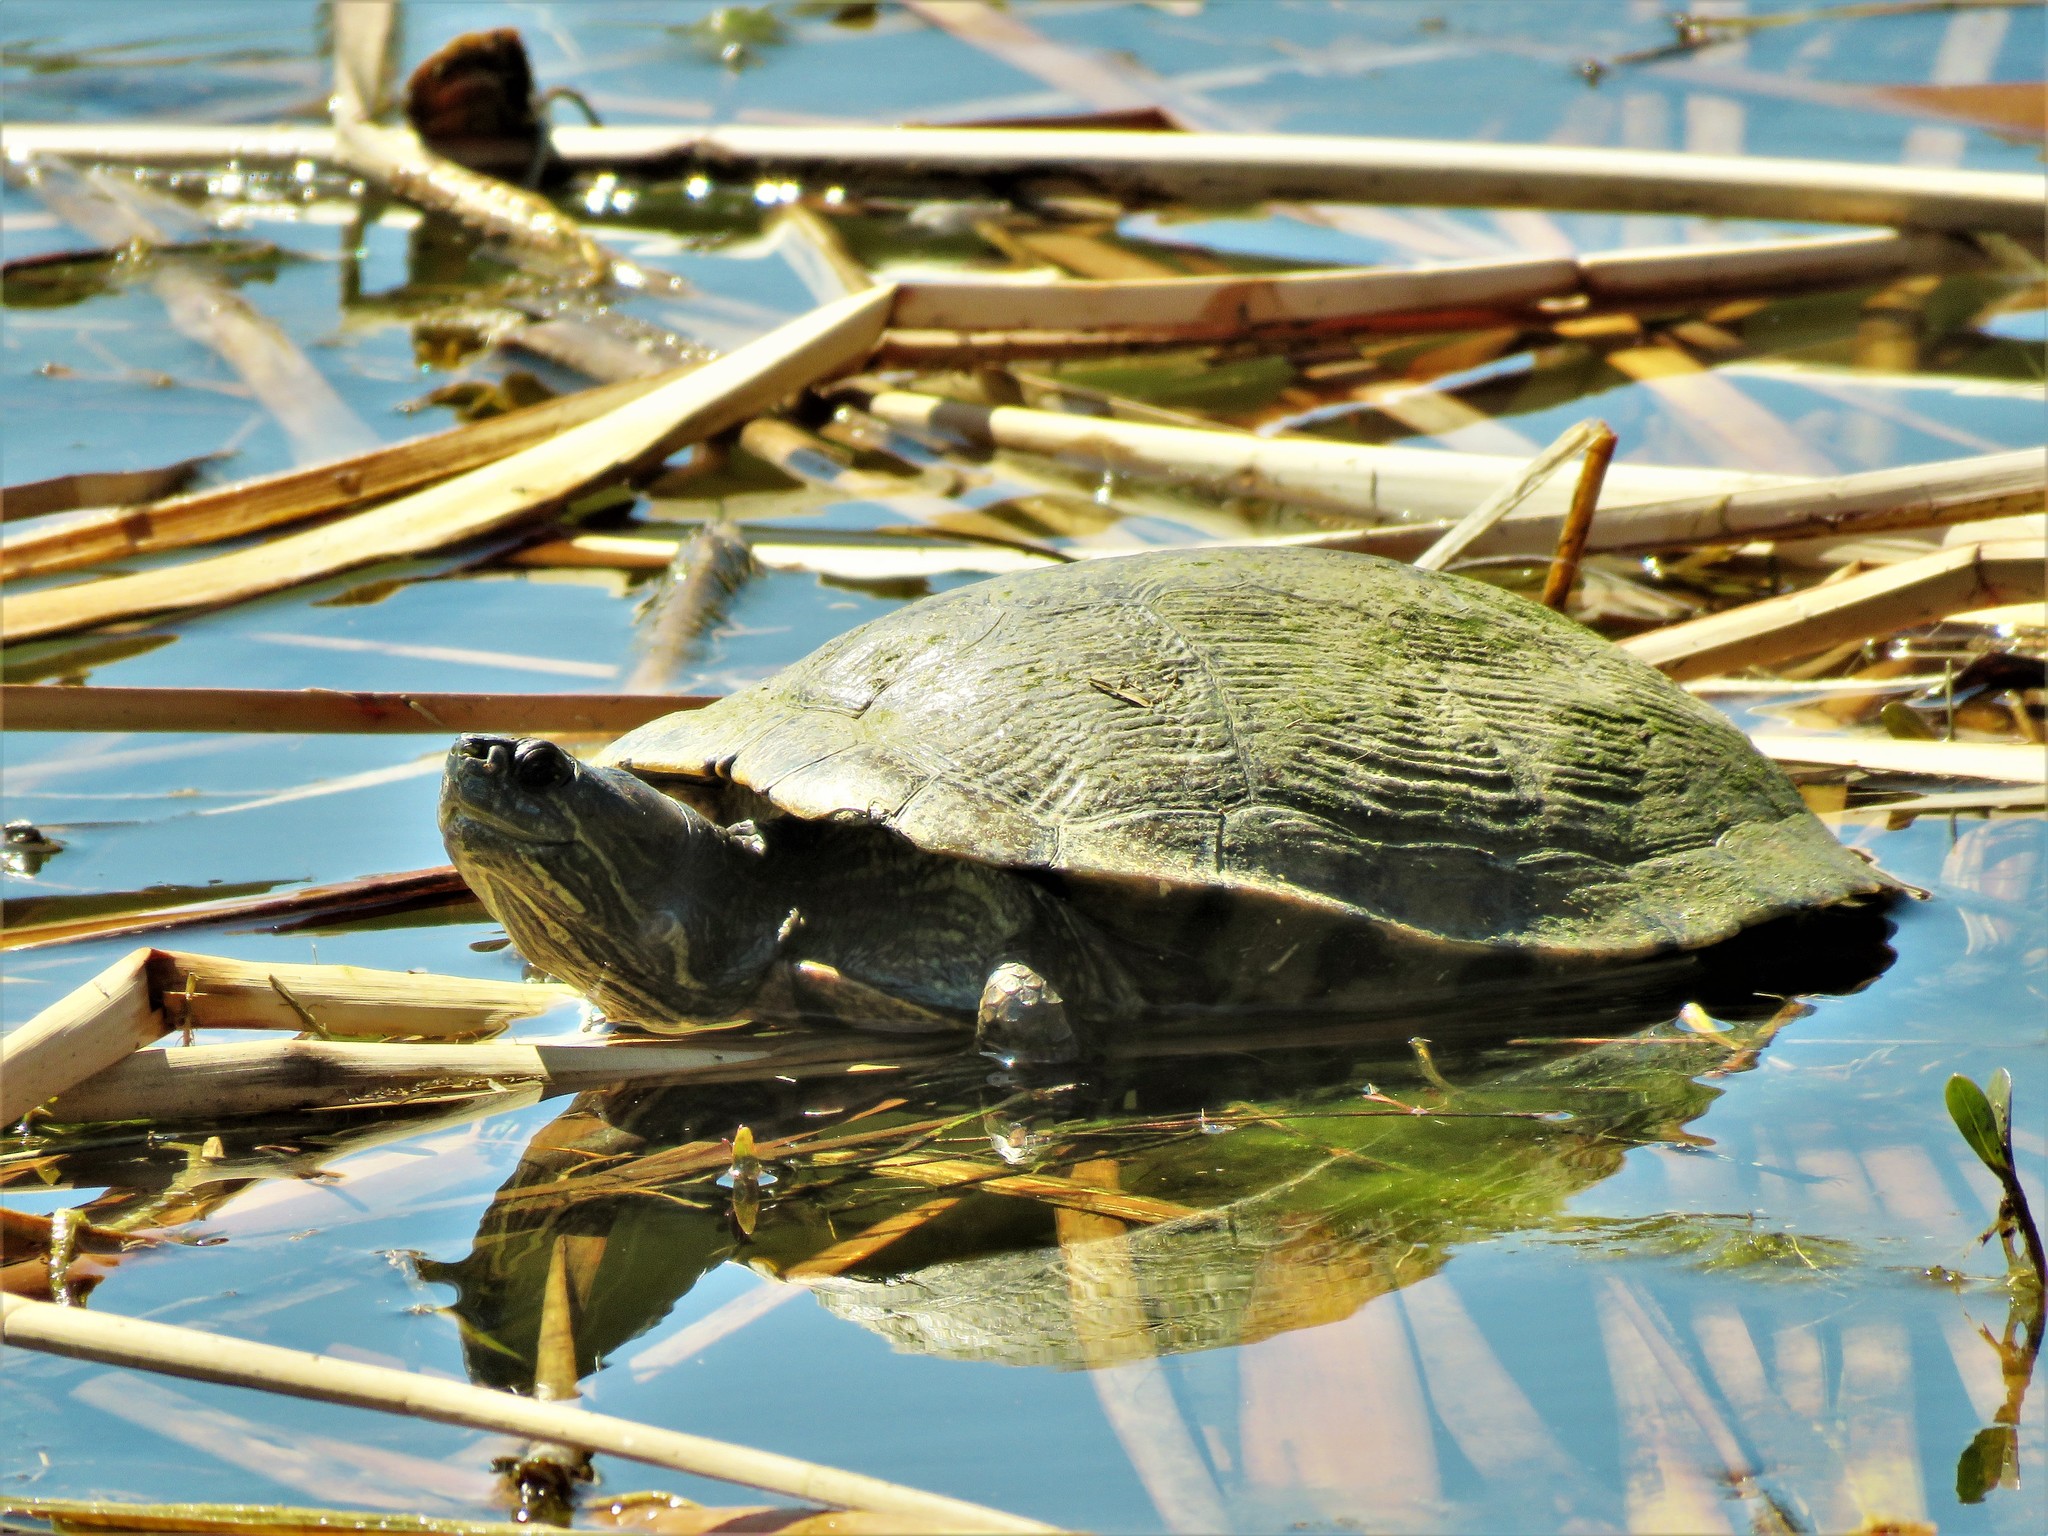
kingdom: Animalia
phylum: Chordata
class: Testudines
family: Emydidae
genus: Trachemys
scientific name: Trachemys scripta
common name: Slider
